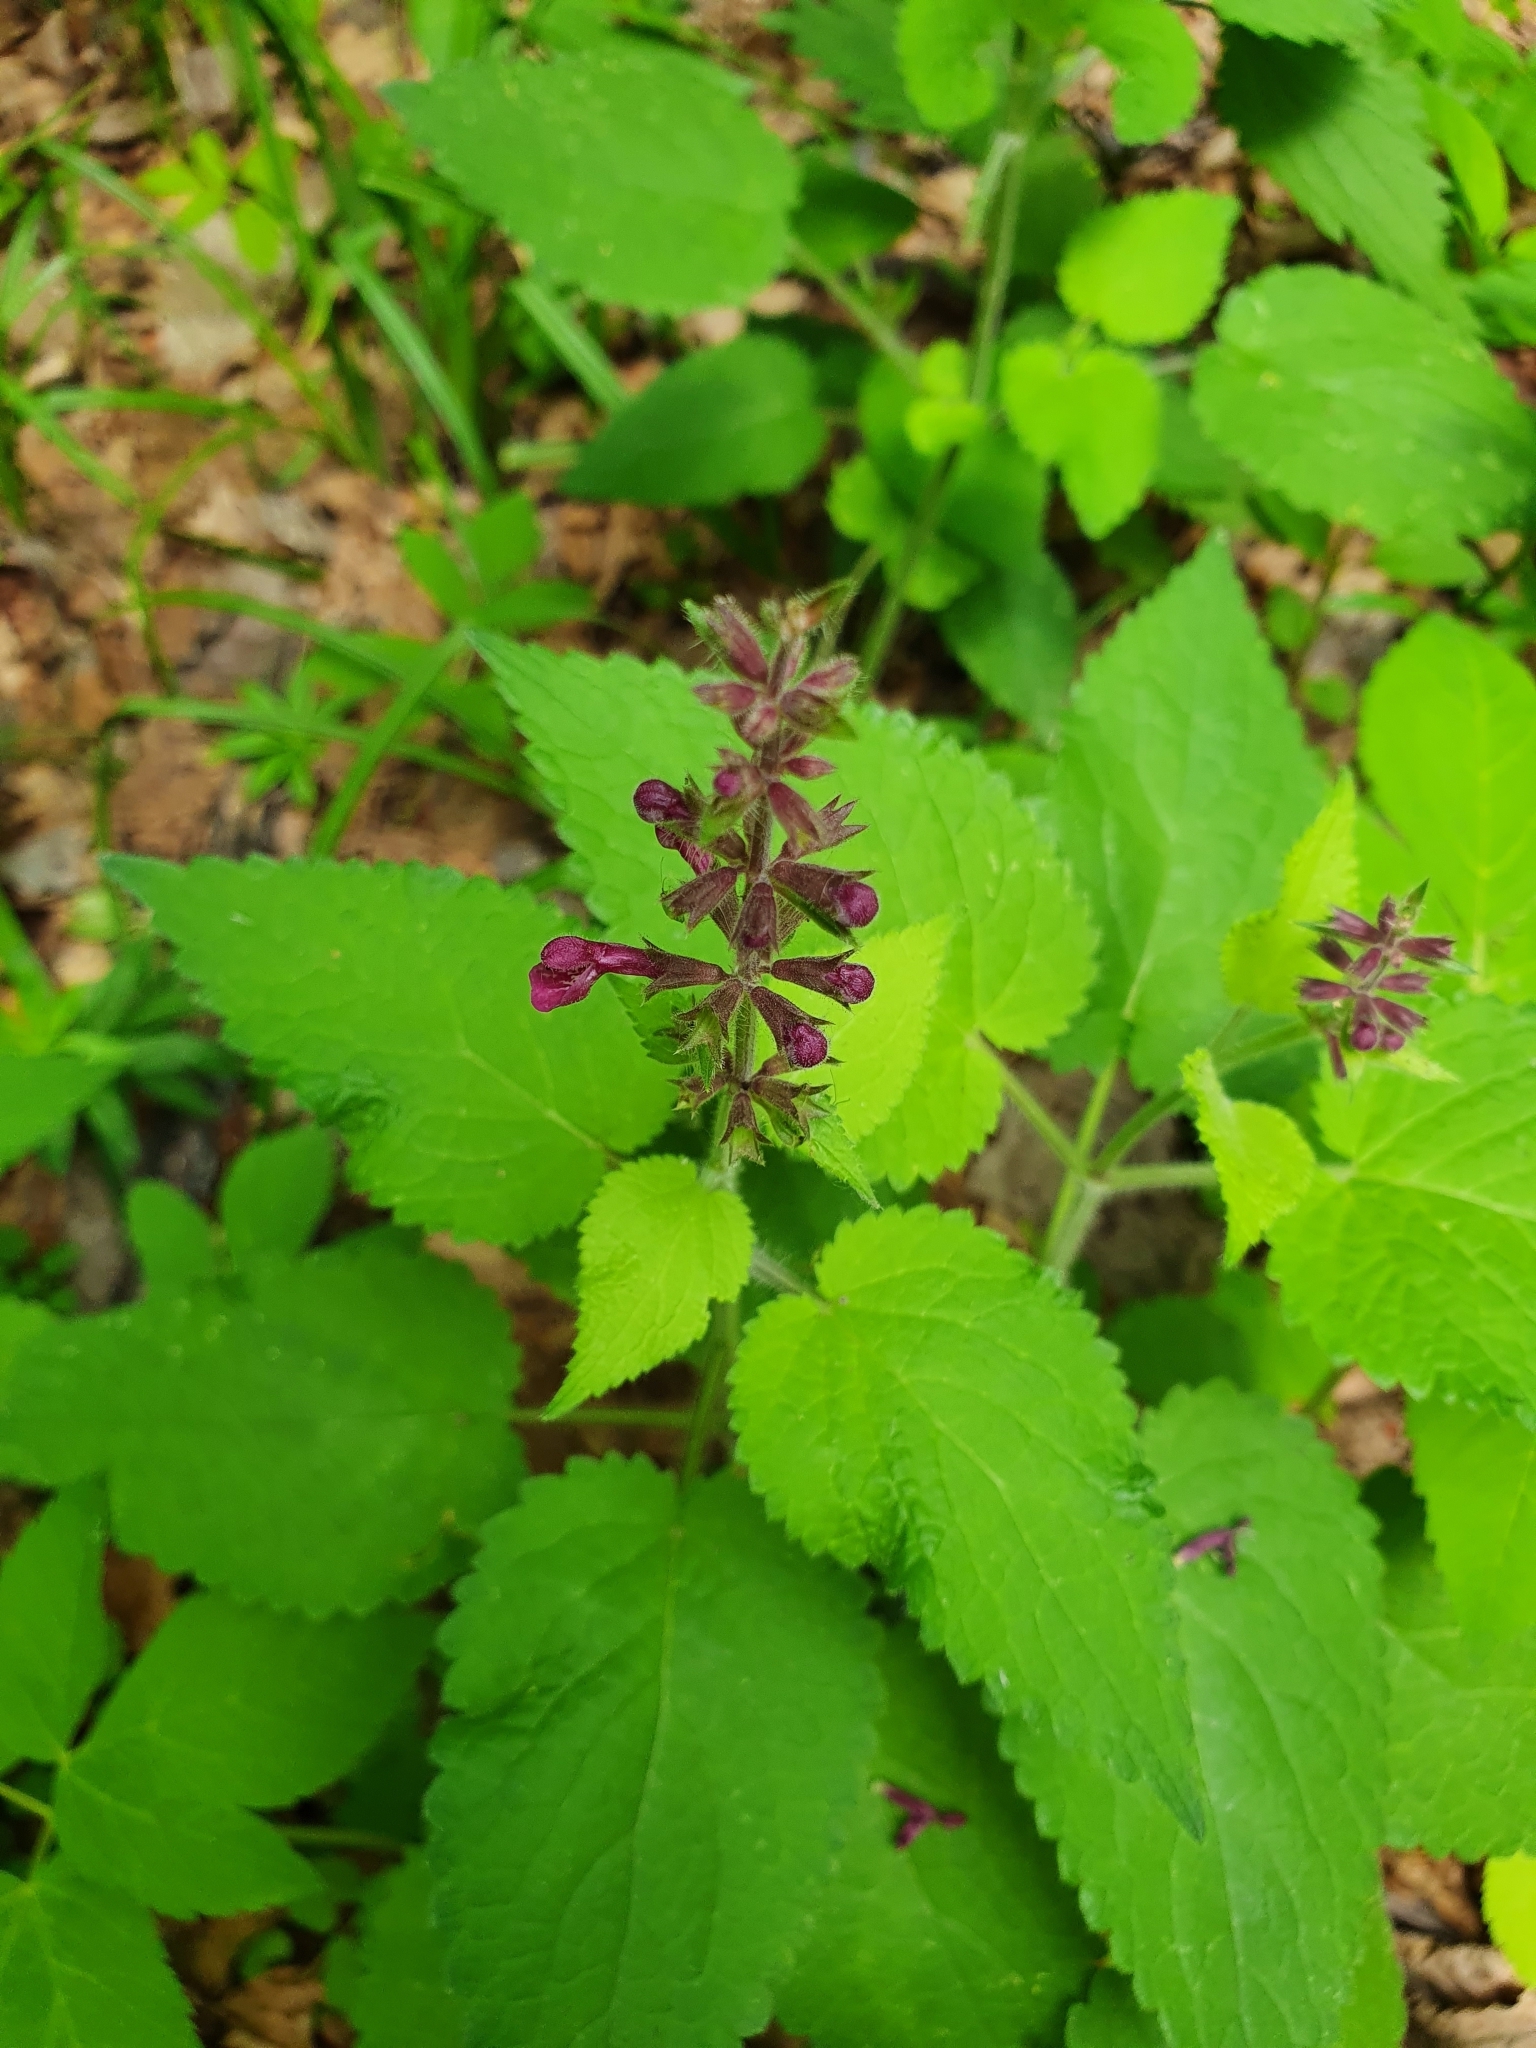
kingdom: Plantae
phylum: Tracheophyta
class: Magnoliopsida
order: Lamiales
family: Lamiaceae
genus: Stachys
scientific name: Stachys sylvatica
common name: Hedge woundwort
